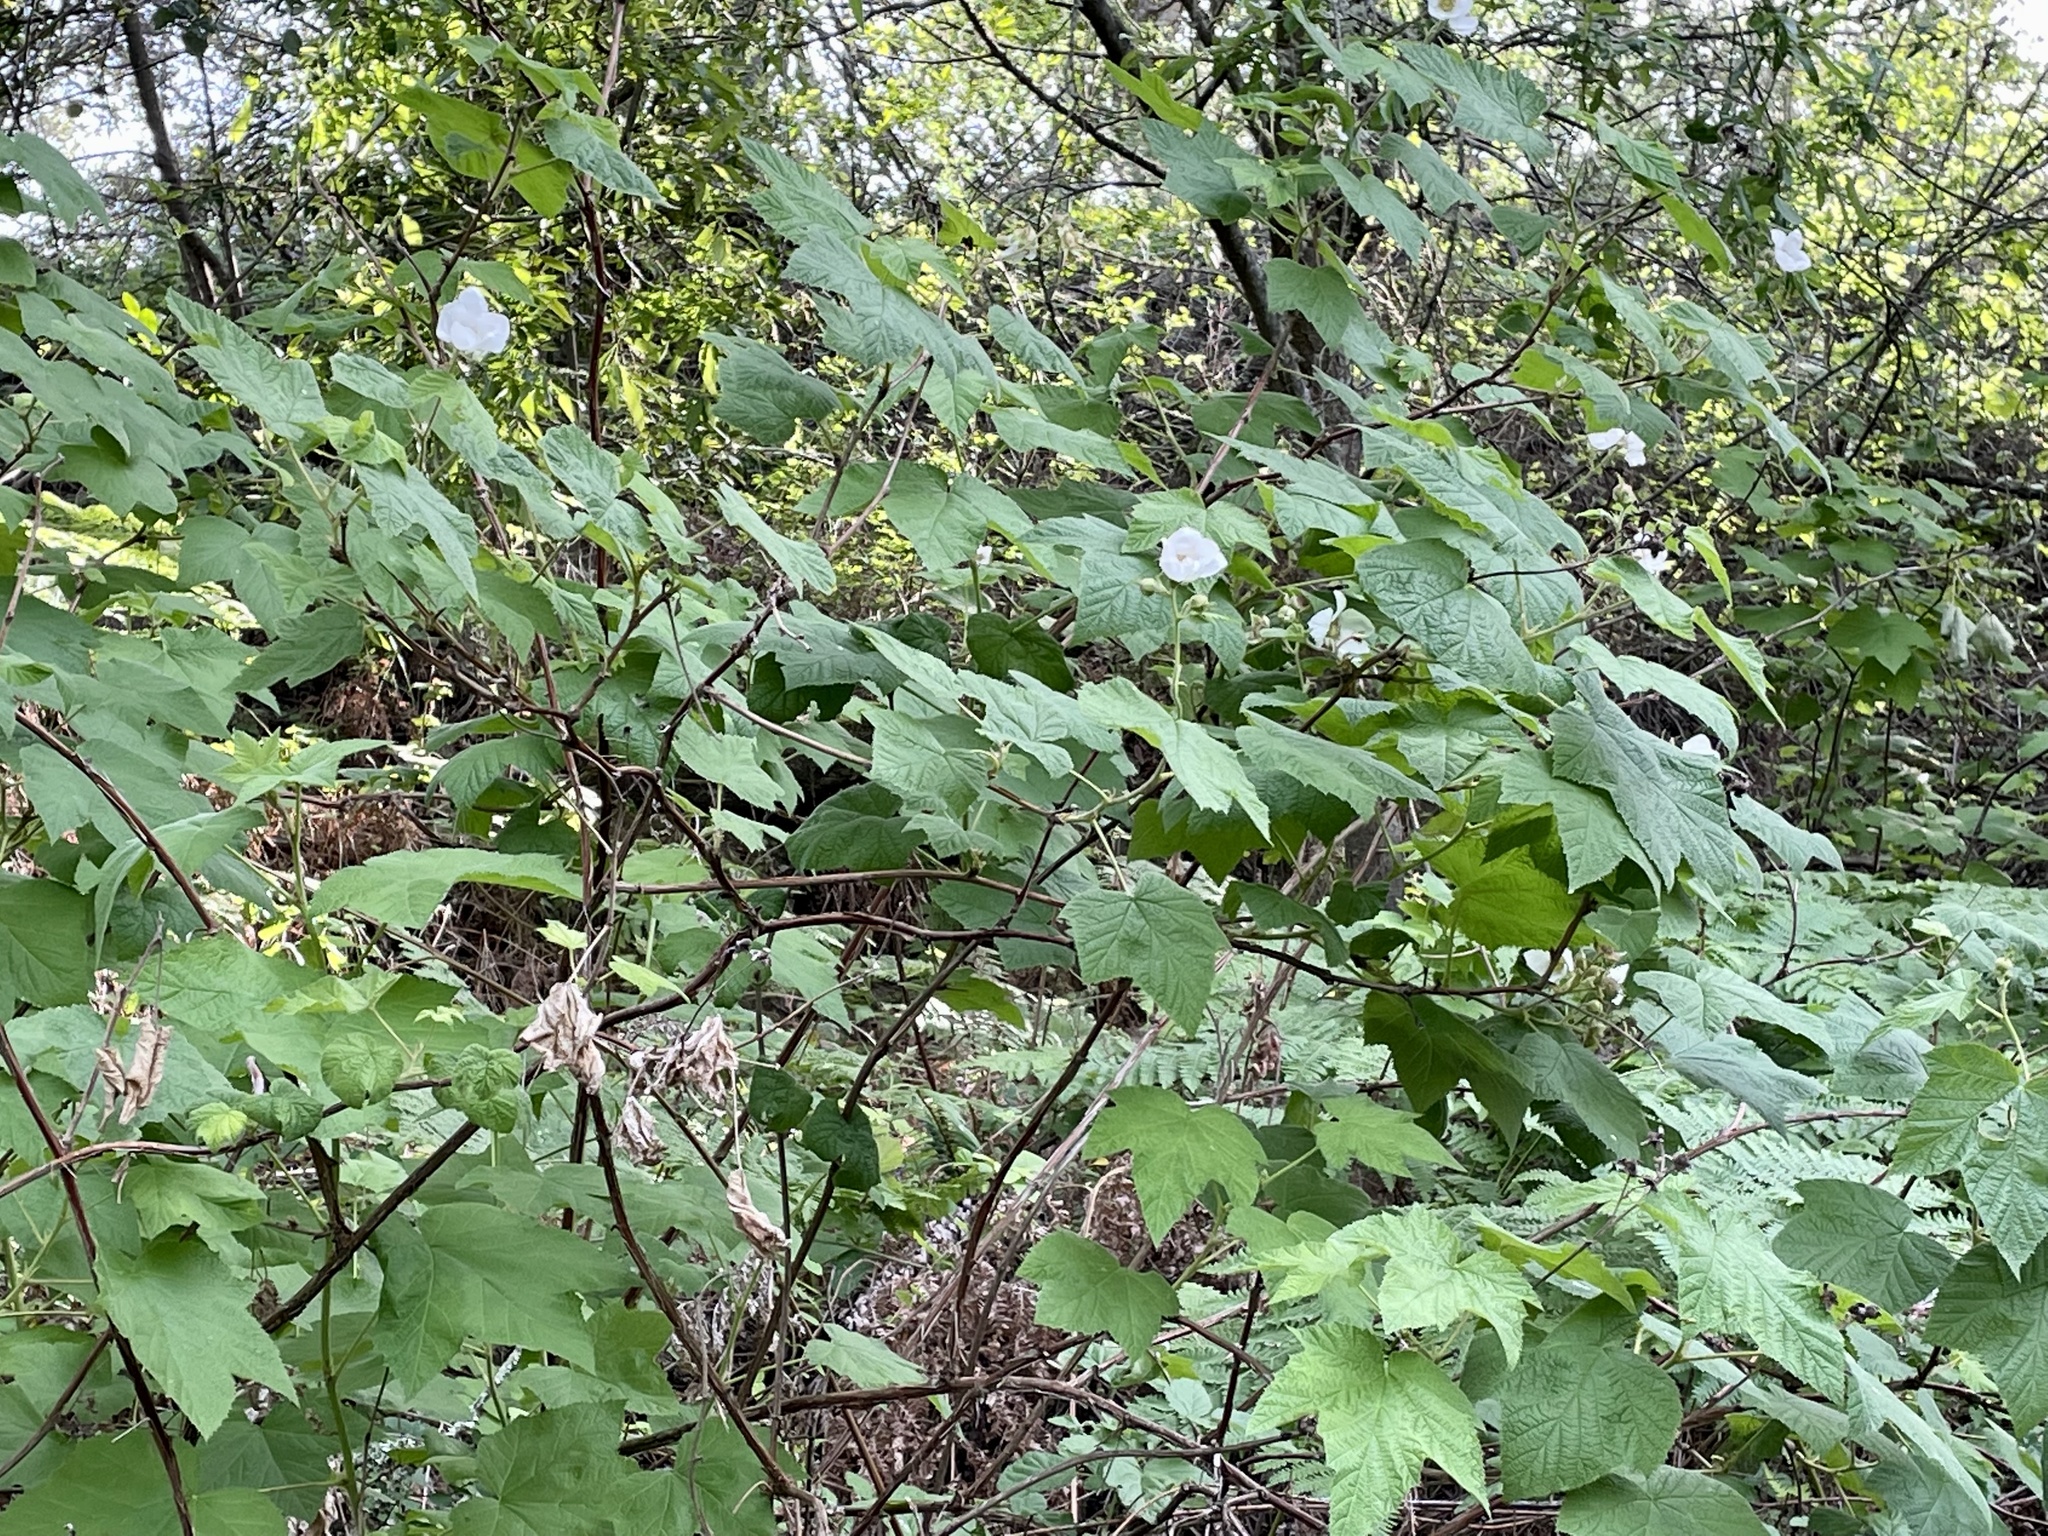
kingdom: Plantae
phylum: Tracheophyta
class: Magnoliopsida
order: Rosales
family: Rosaceae
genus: Rubus
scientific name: Rubus parviflorus
